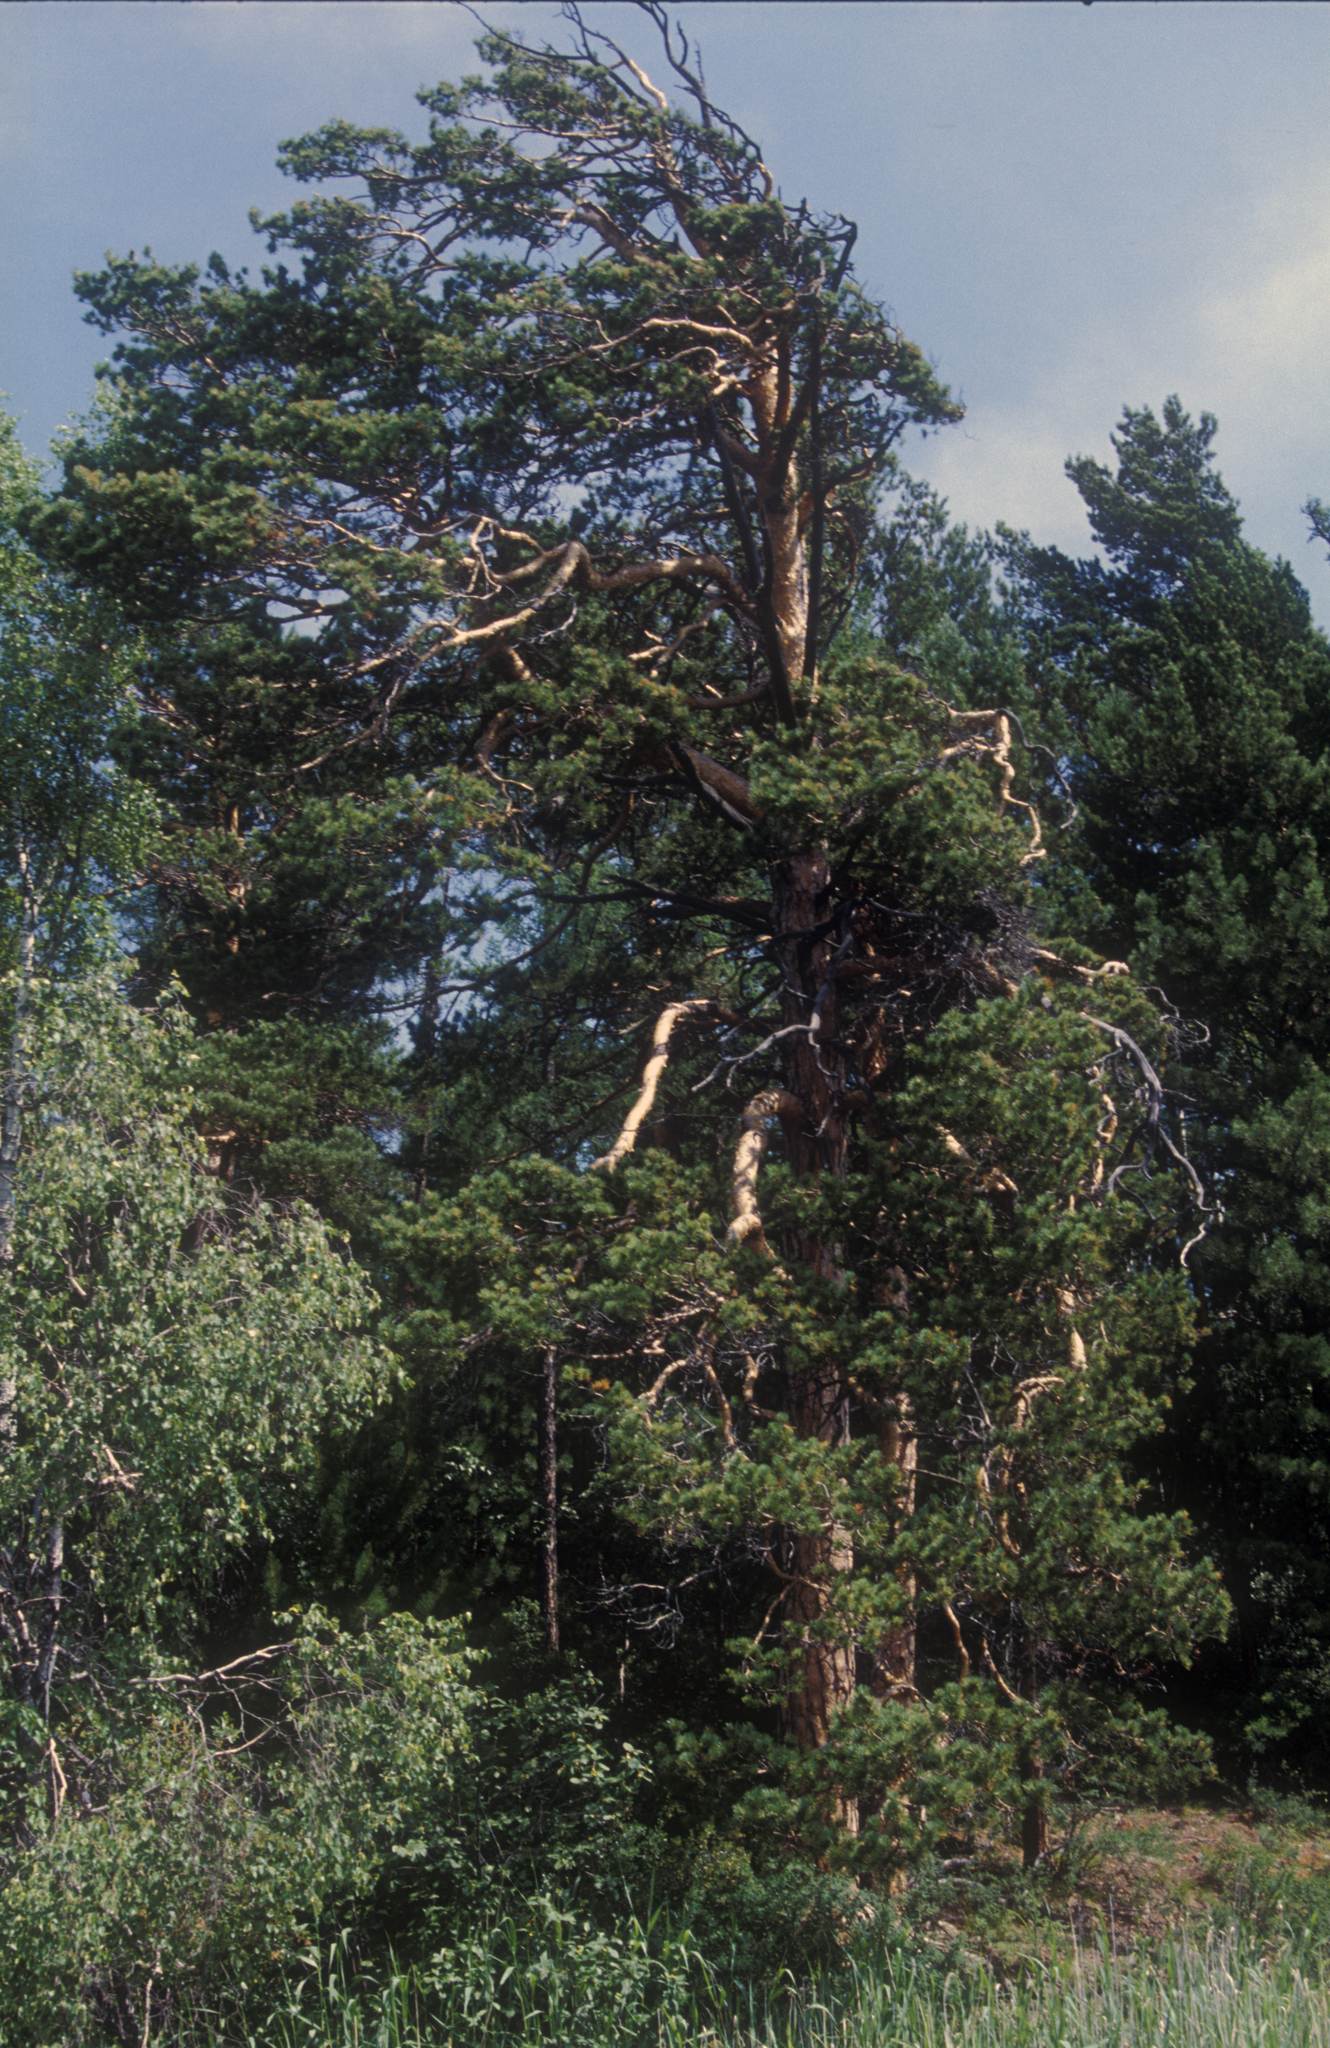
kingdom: Plantae
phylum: Tracheophyta
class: Pinopsida
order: Pinales
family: Pinaceae
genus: Pinus
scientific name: Pinus sylvestris
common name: Scots pine
